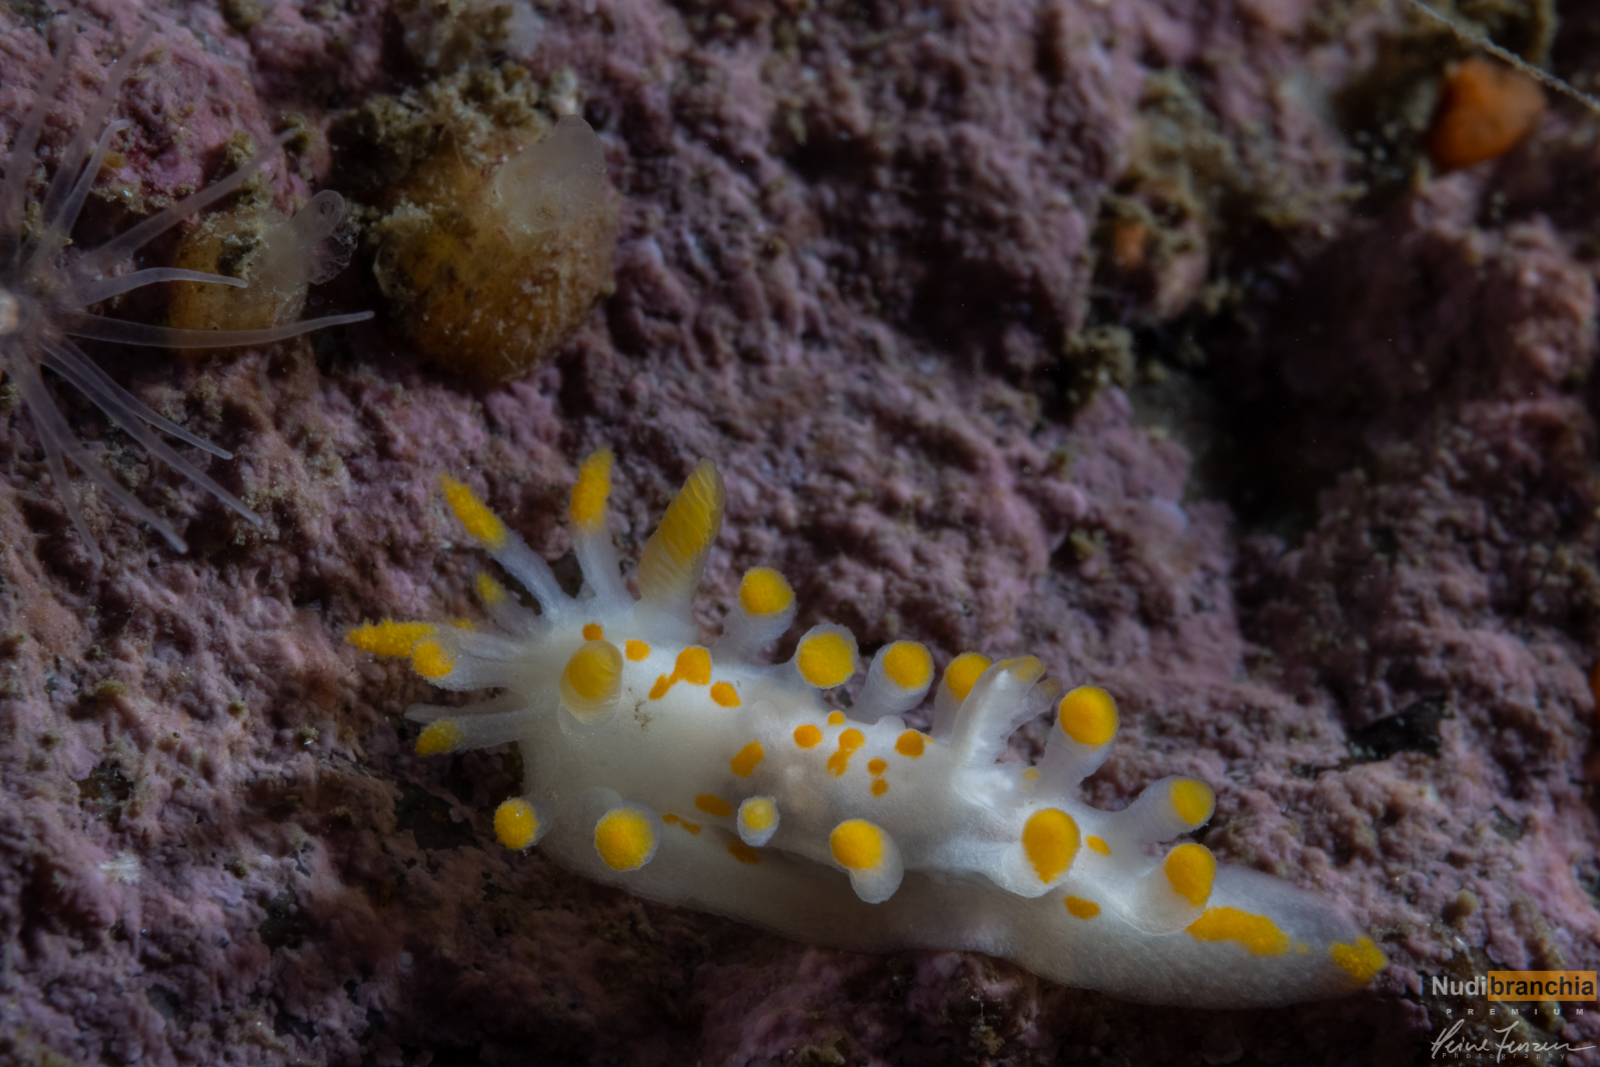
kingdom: Animalia
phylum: Mollusca
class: Gastropoda
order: Nudibranchia
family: Polyceridae
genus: Limacia
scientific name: Limacia clavigera
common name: Orange-clubbed sea slug
